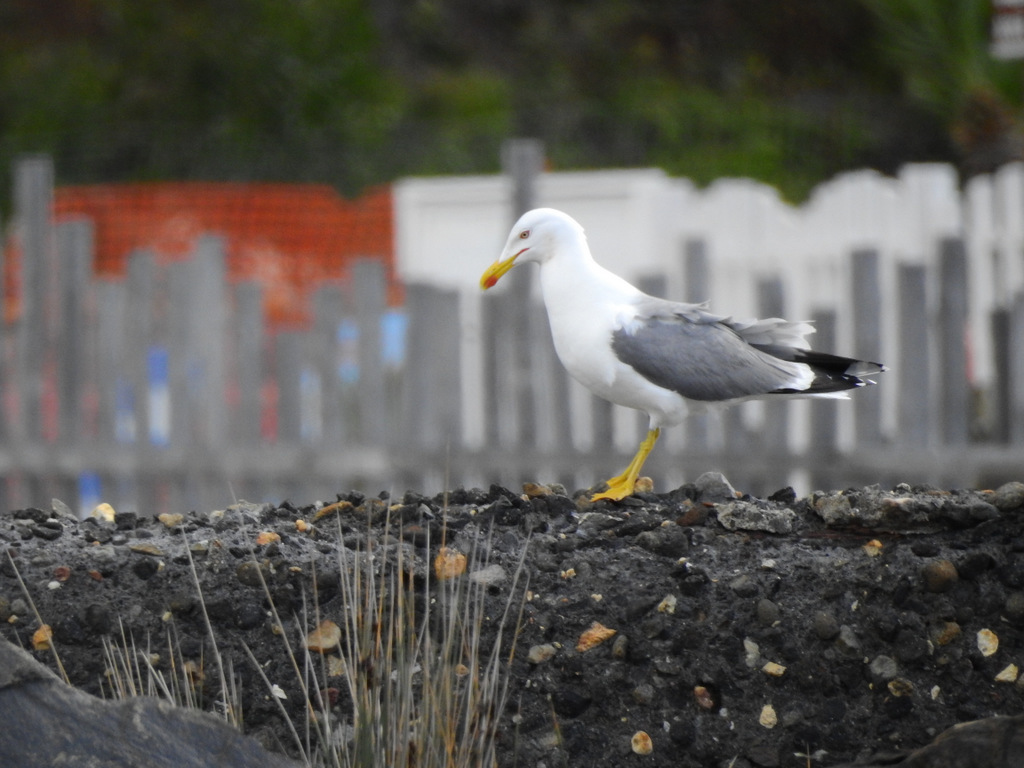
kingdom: Animalia
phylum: Chordata
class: Aves
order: Charadriiformes
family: Laridae
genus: Larus
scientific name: Larus michahellis
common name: Yellow-legged gull
